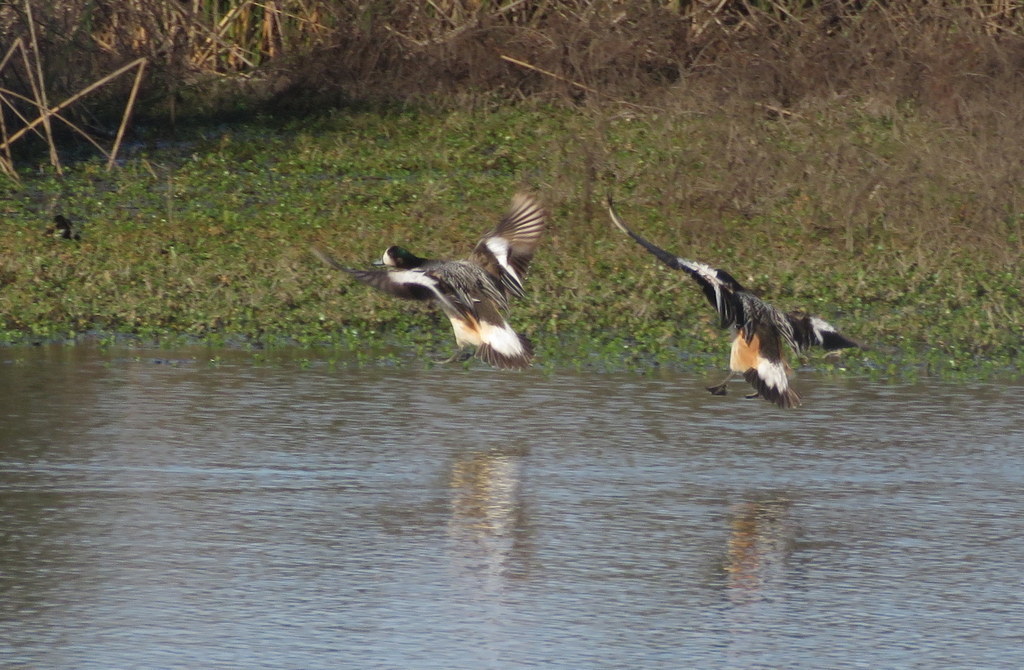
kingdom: Animalia
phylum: Chordata
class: Aves
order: Anseriformes
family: Anatidae
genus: Mareca
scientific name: Mareca sibilatrix
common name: Chiloe wigeon
